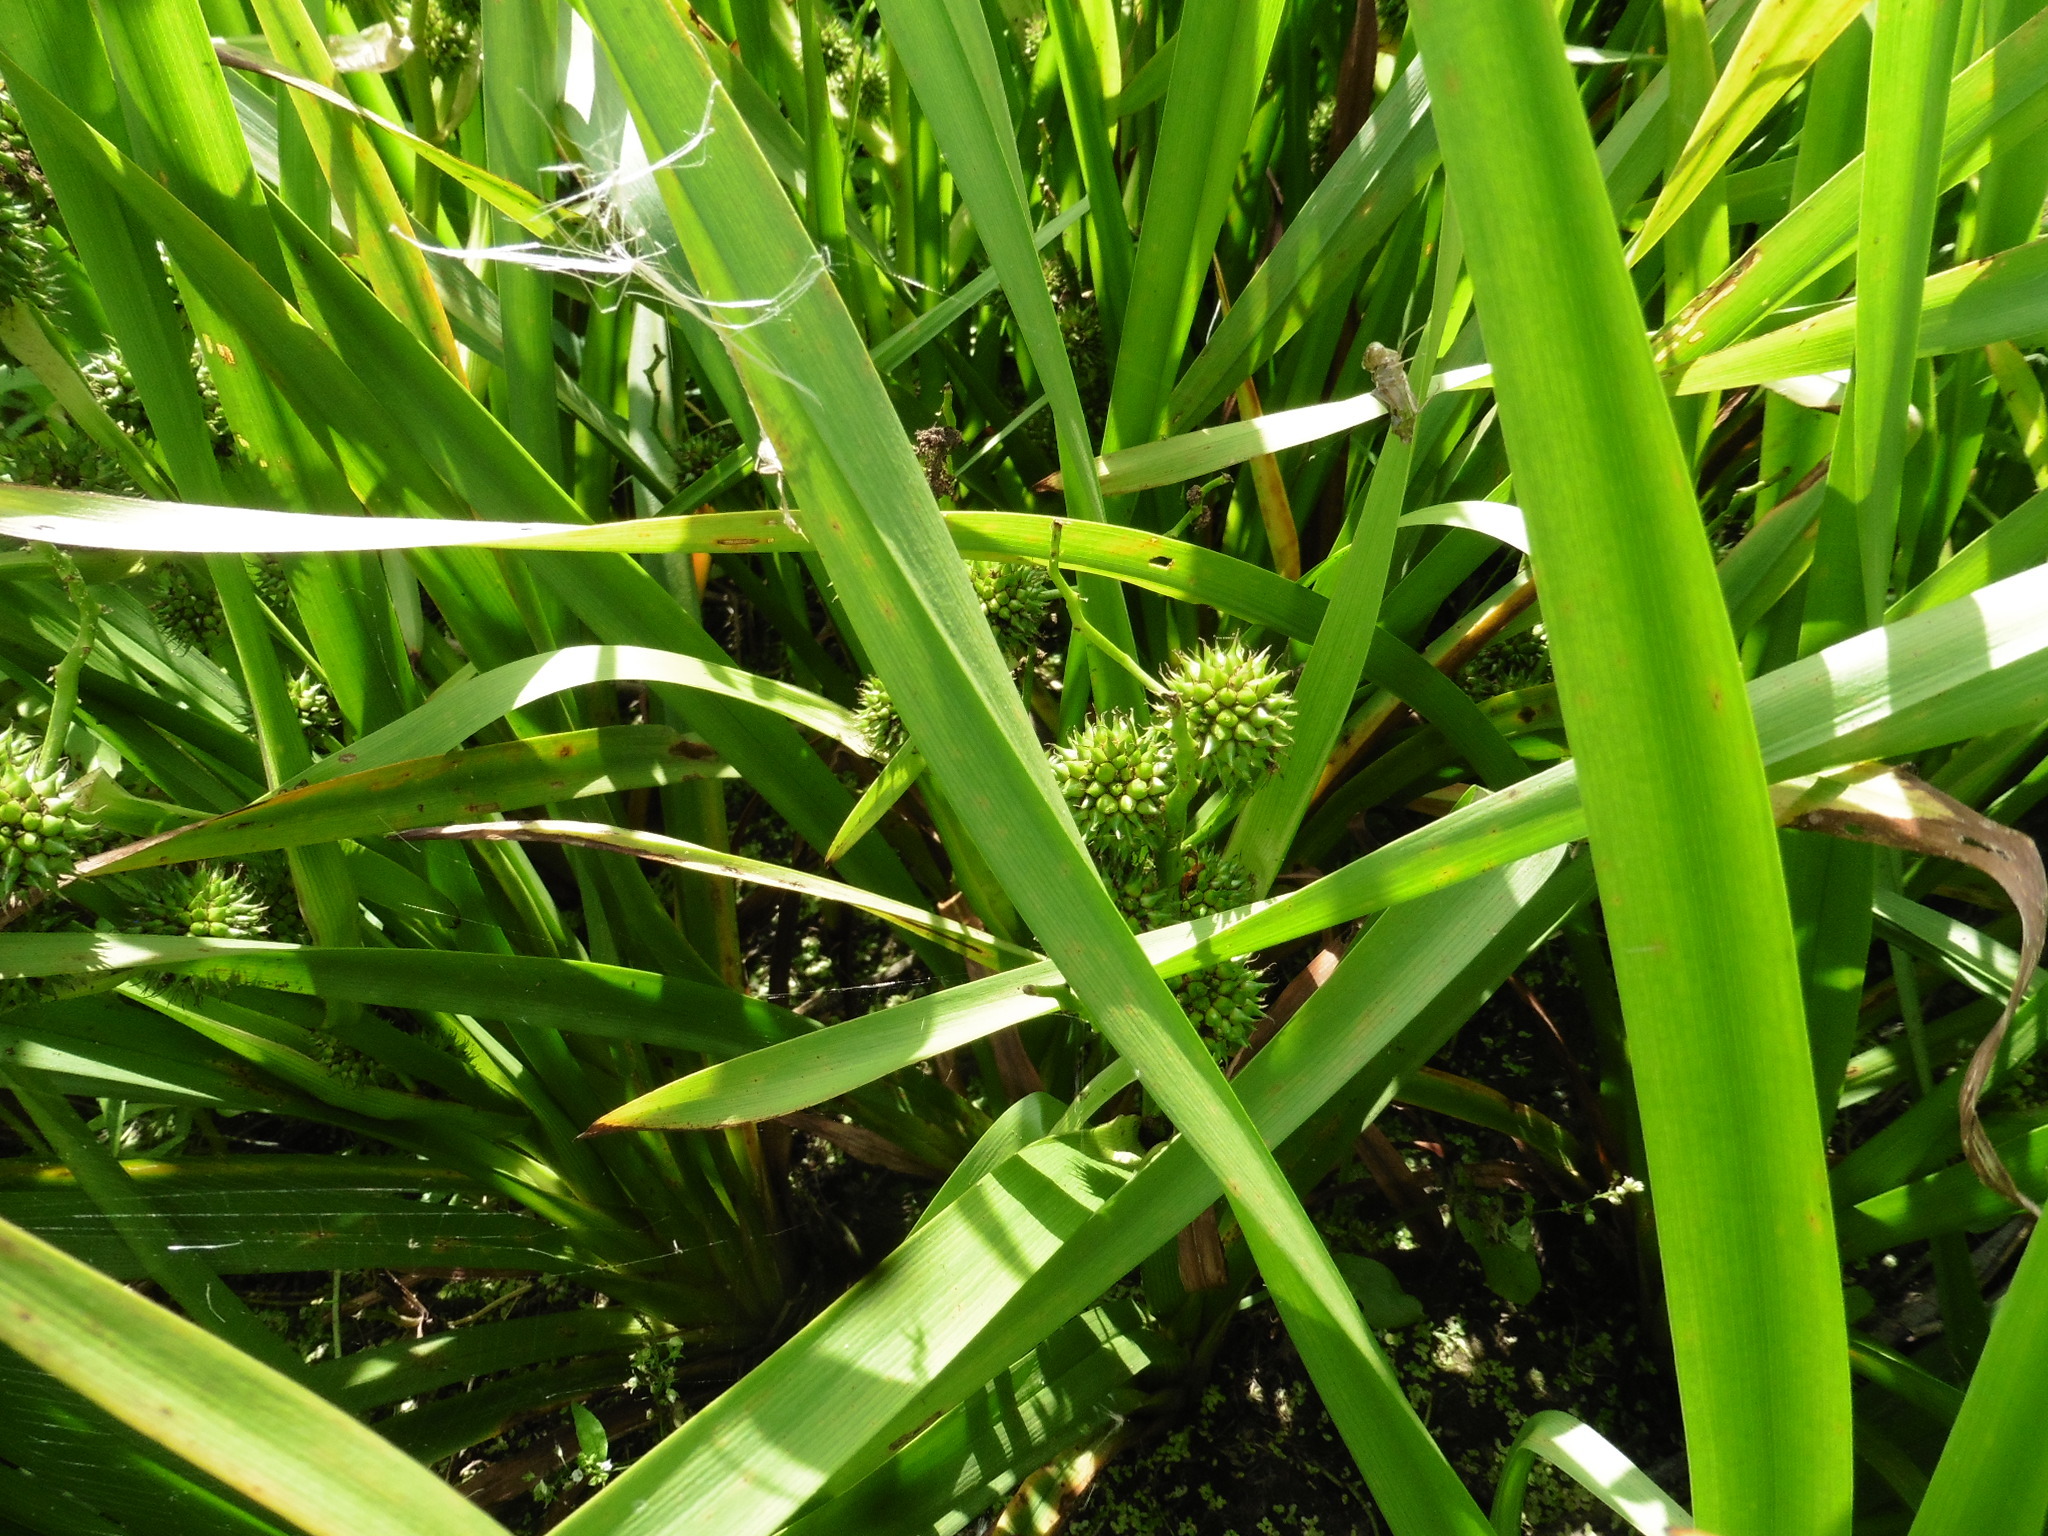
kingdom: Plantae
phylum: Tracheophyta
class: Liliopsida
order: Poales
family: Typhaceae
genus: Sparganium
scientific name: Sparganium erectum
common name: Branched bur-reed
